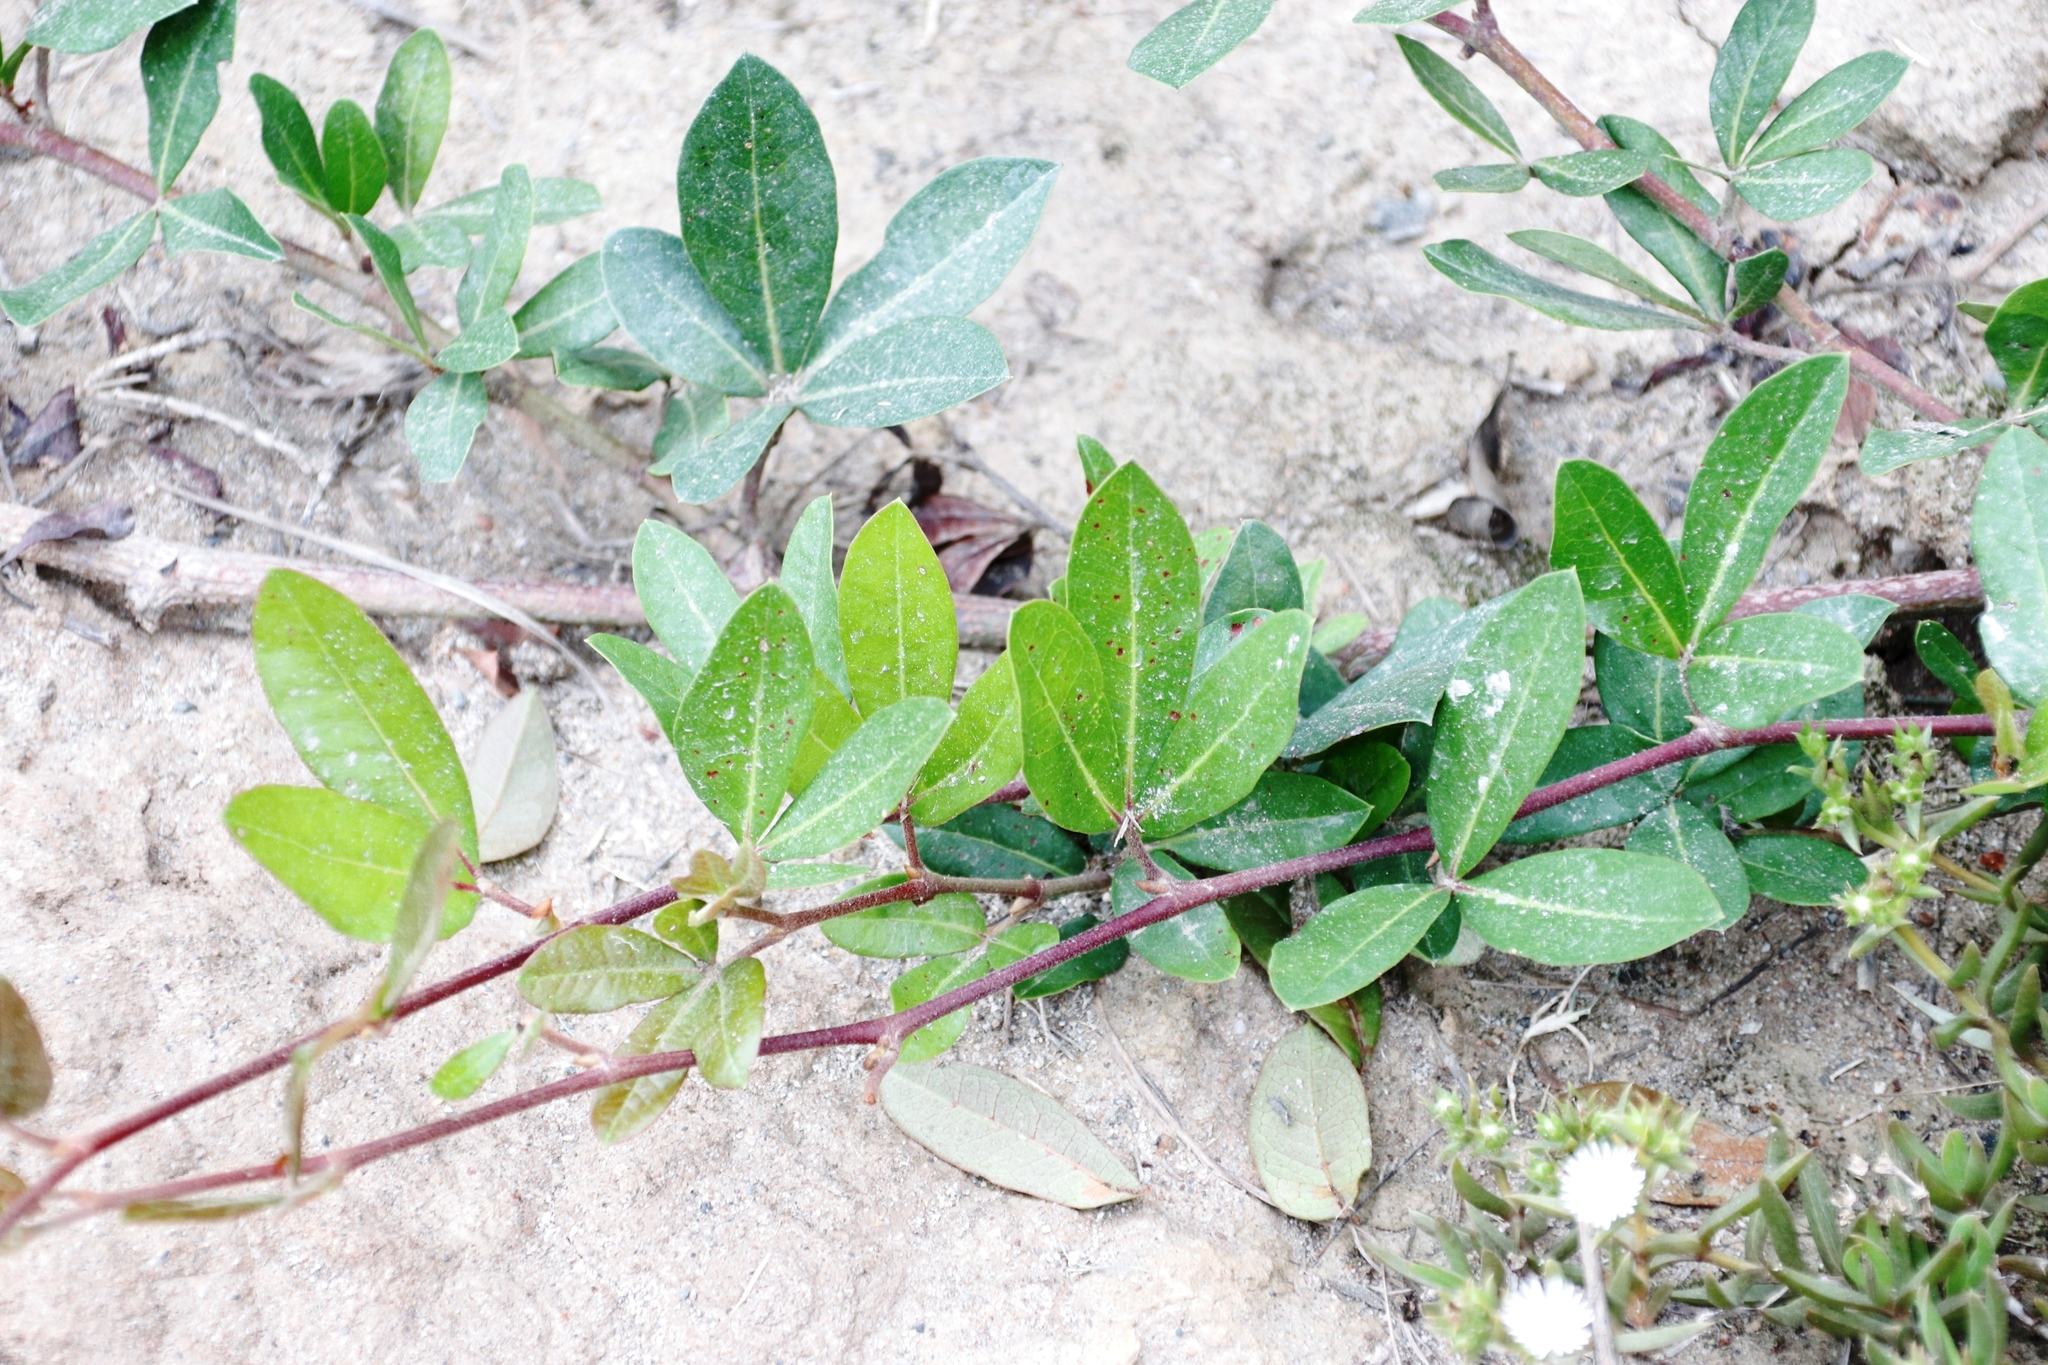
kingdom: Plantae
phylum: Tracheophyta
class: Magnoliopsida
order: Vitales
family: Vitaceae
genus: Rhoicissus
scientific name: Rhoicissus digitata
